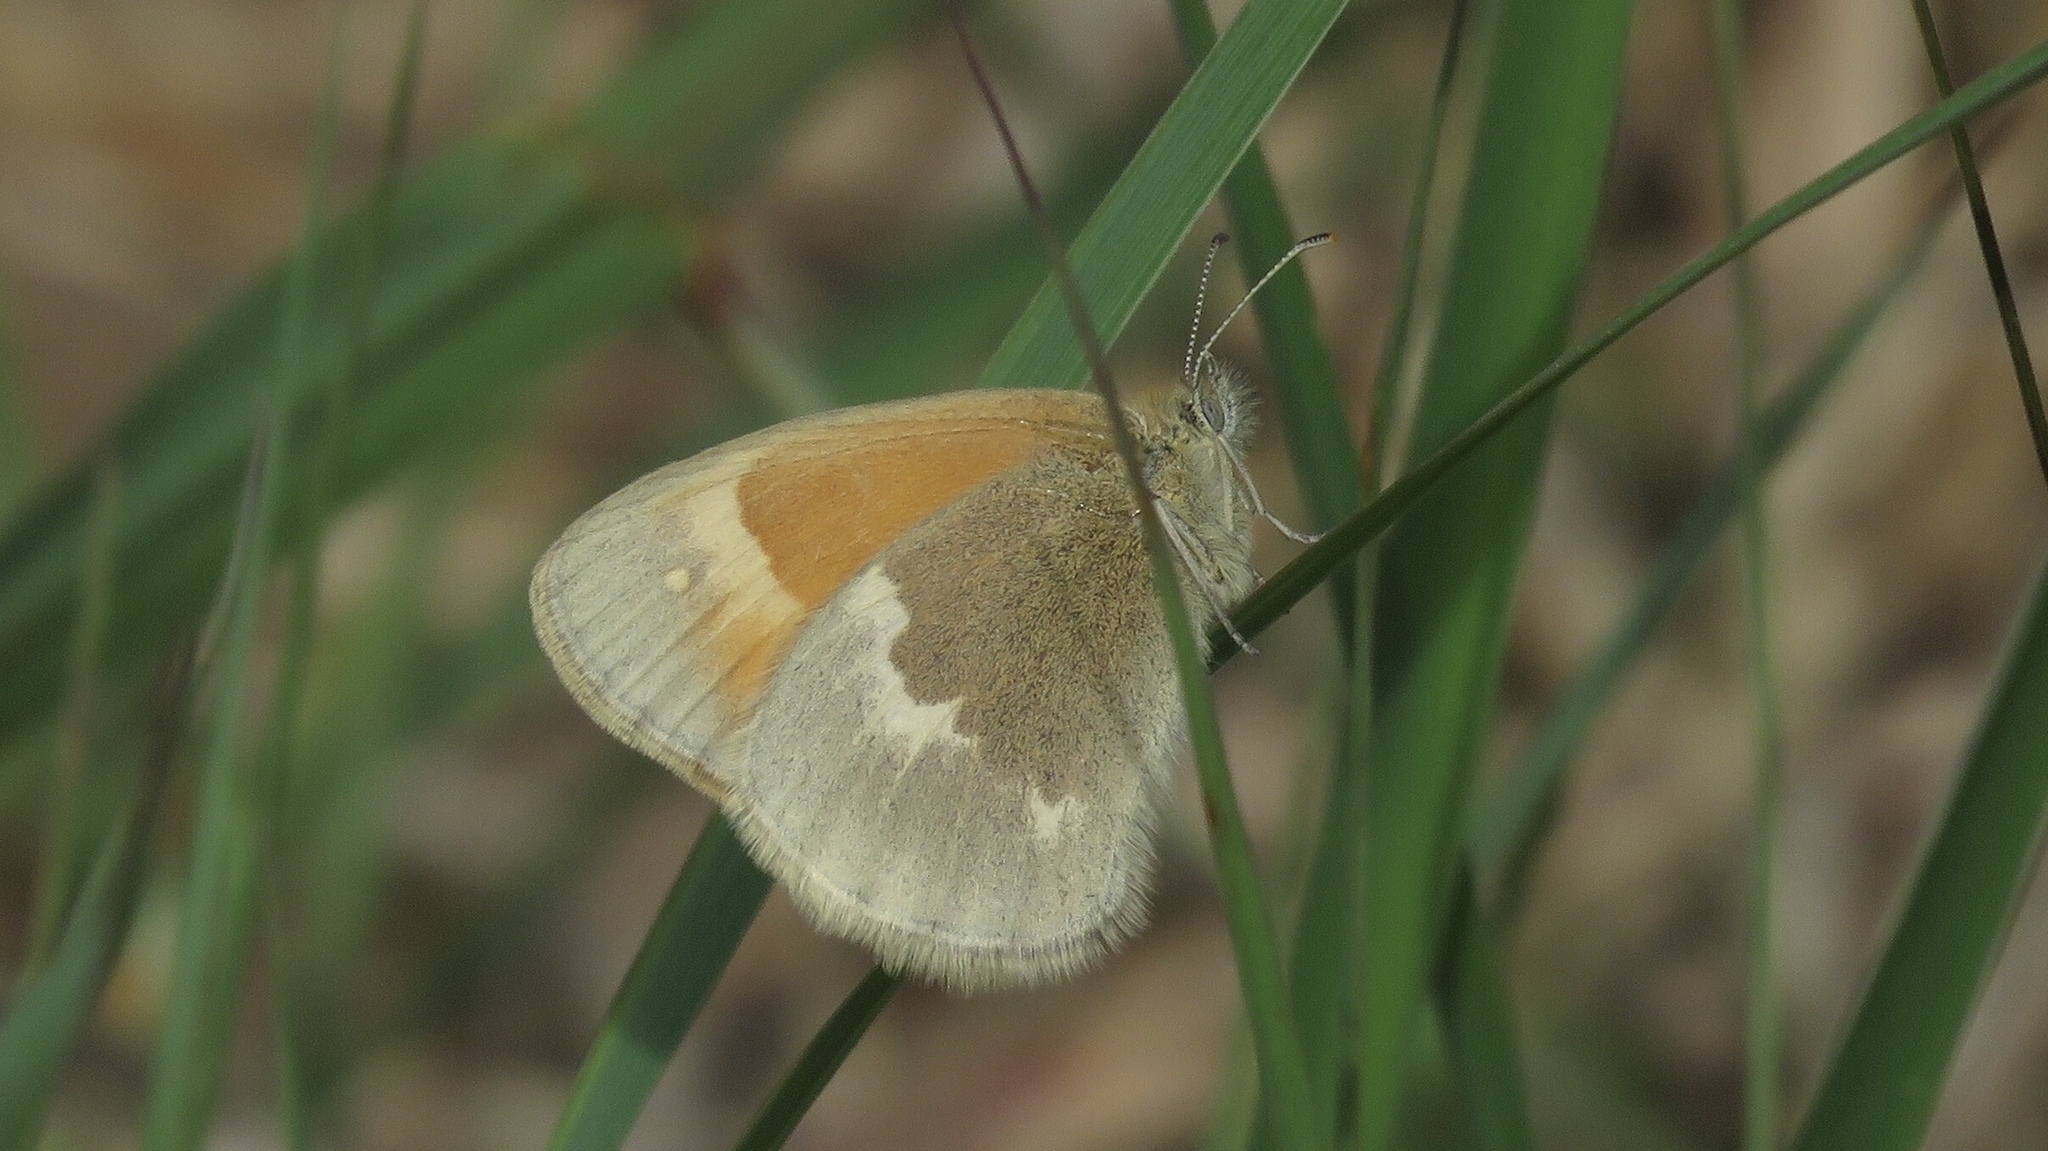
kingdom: Animalia
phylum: Arthropoda
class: Insecta
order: Lepidoptera
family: Nymphalidae
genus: Coenonympha
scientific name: Coenonympha california
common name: Common ringlet
